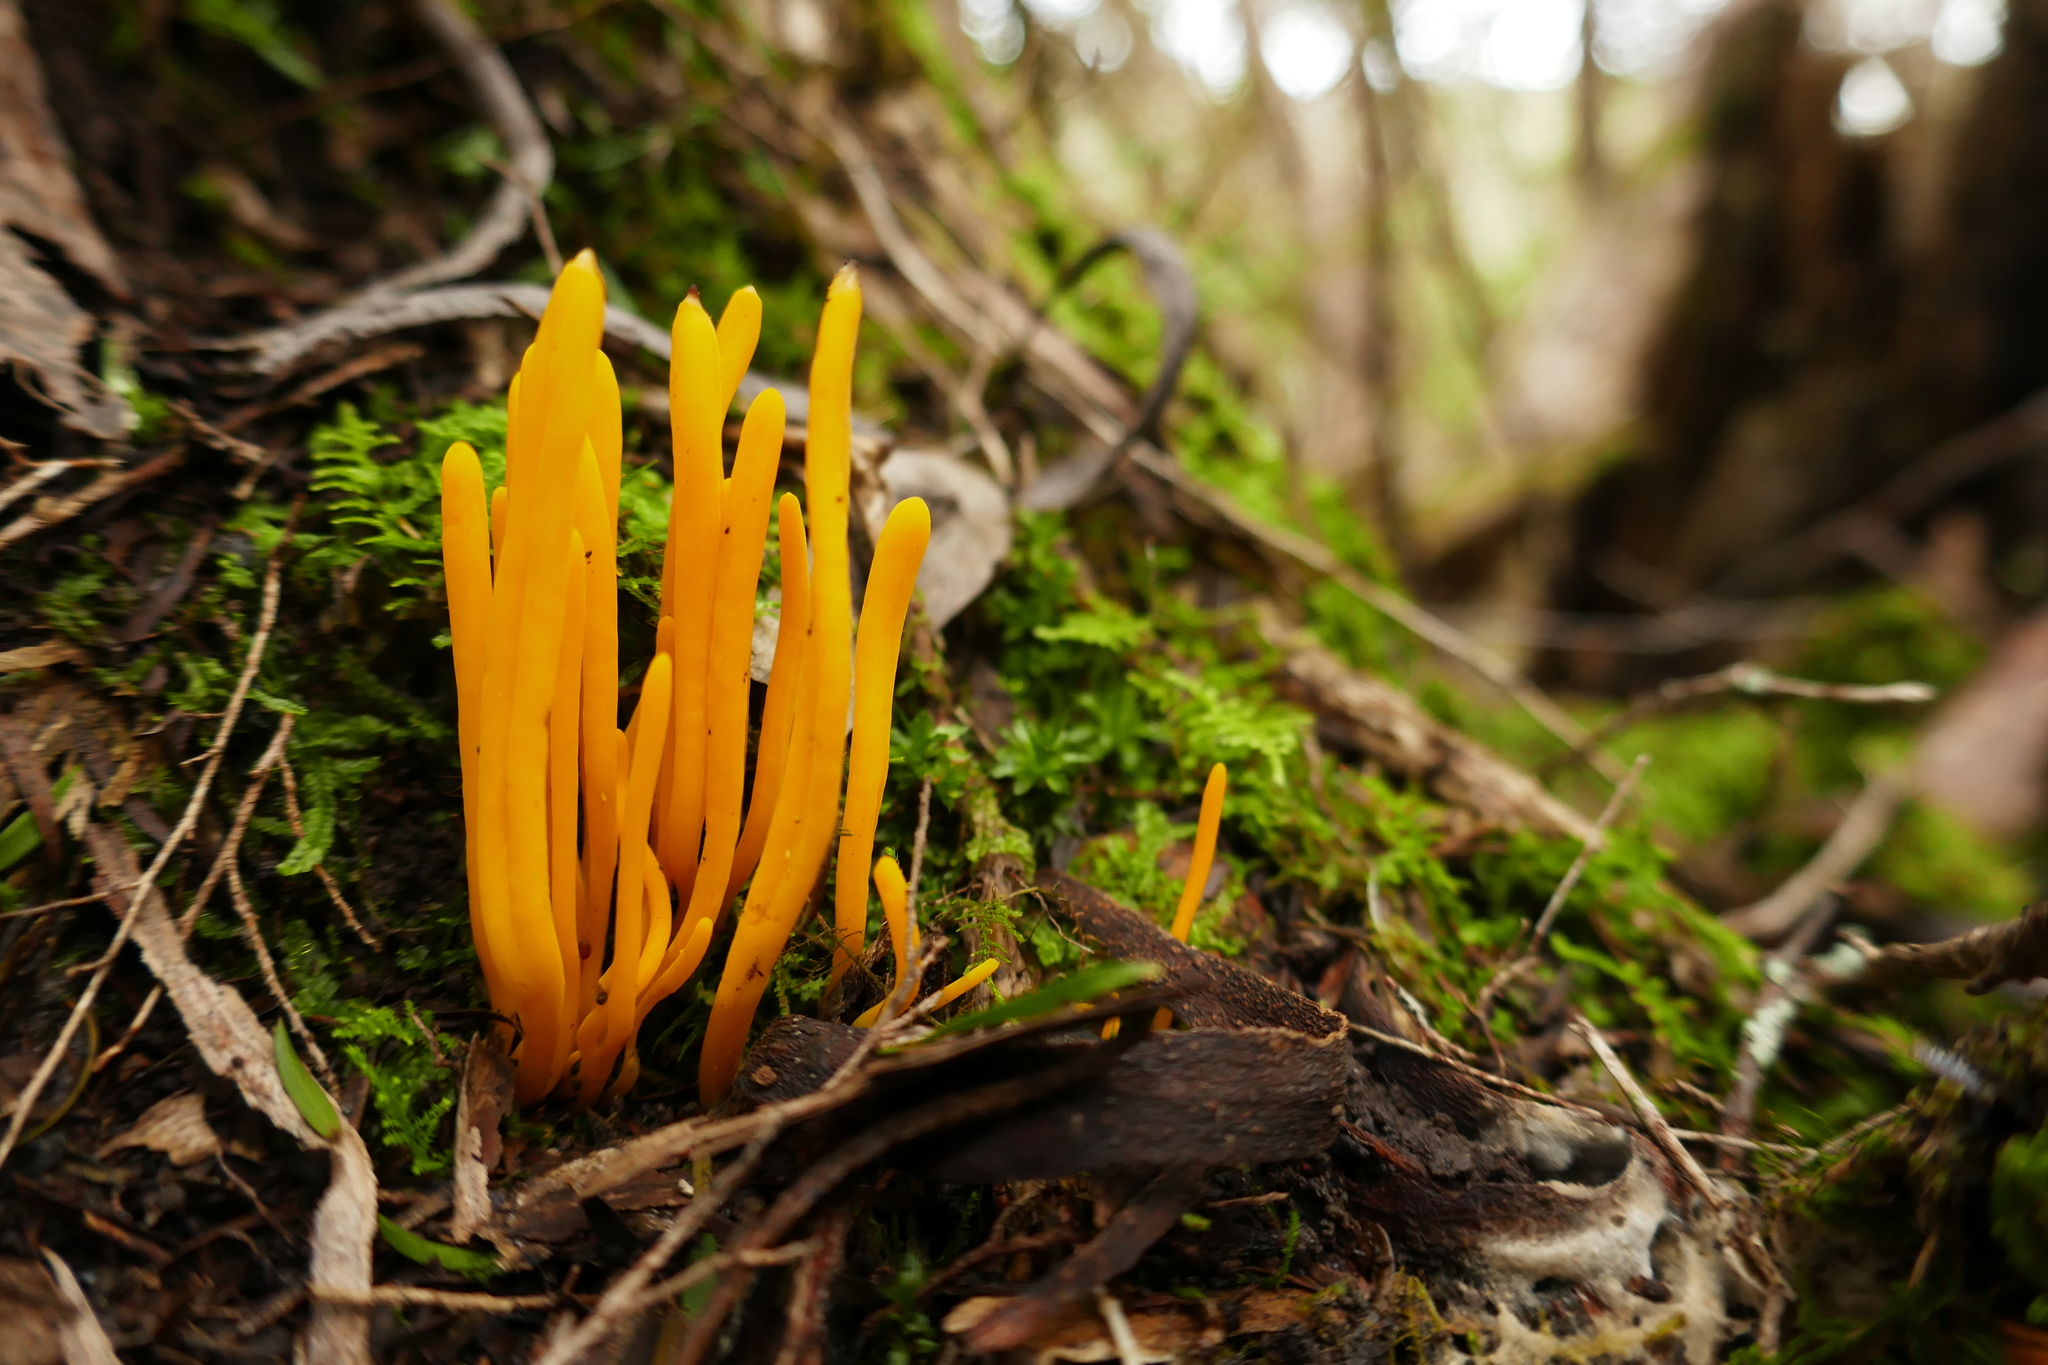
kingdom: Fungi
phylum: Basidiomycota
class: Agaricomycetes
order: Agaricales
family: Clavariaceae
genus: Clavulinopsis
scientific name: Clavulinopsis amoena
